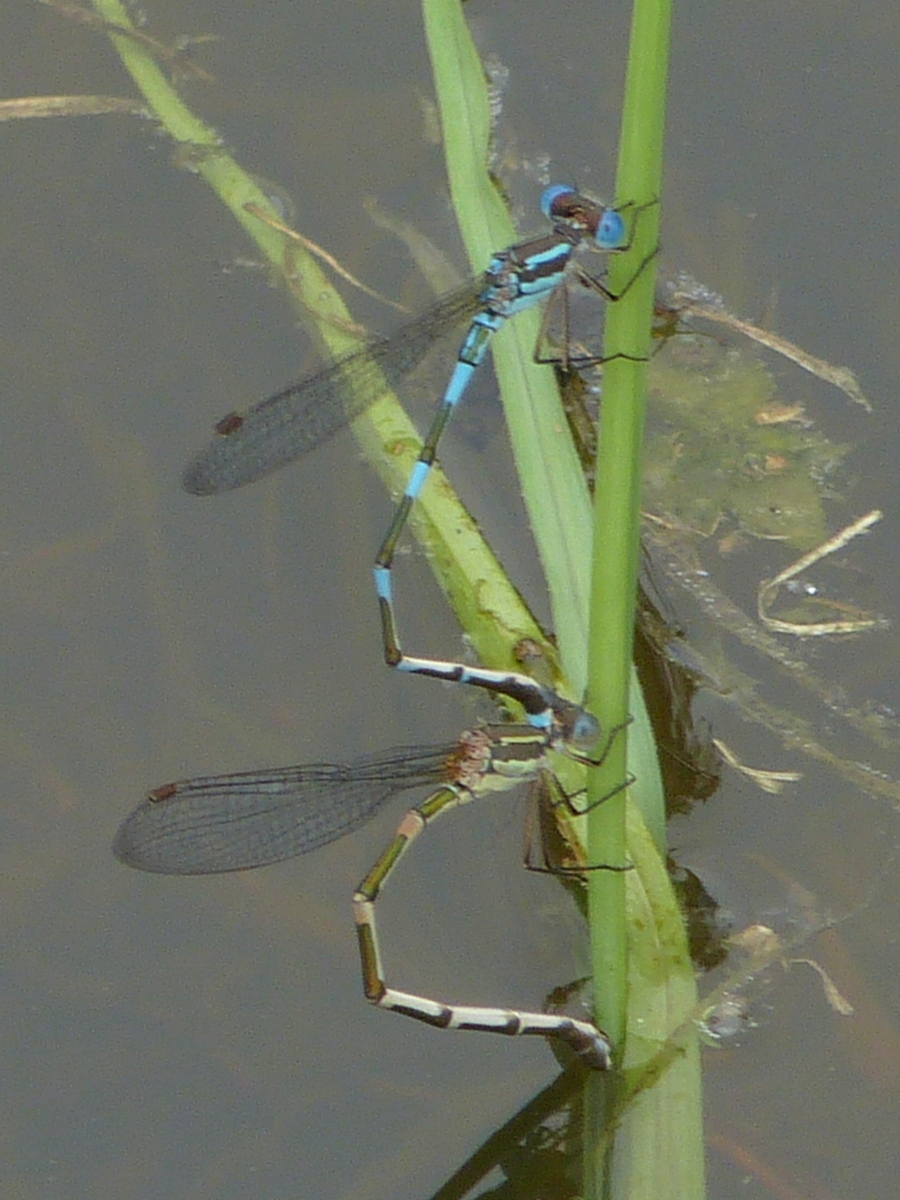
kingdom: Animalia
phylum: Arthropoda
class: Insecta
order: Odonata
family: Lestidae
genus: Austrolestes
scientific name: Austrolestes leda
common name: Wandering ringtail
